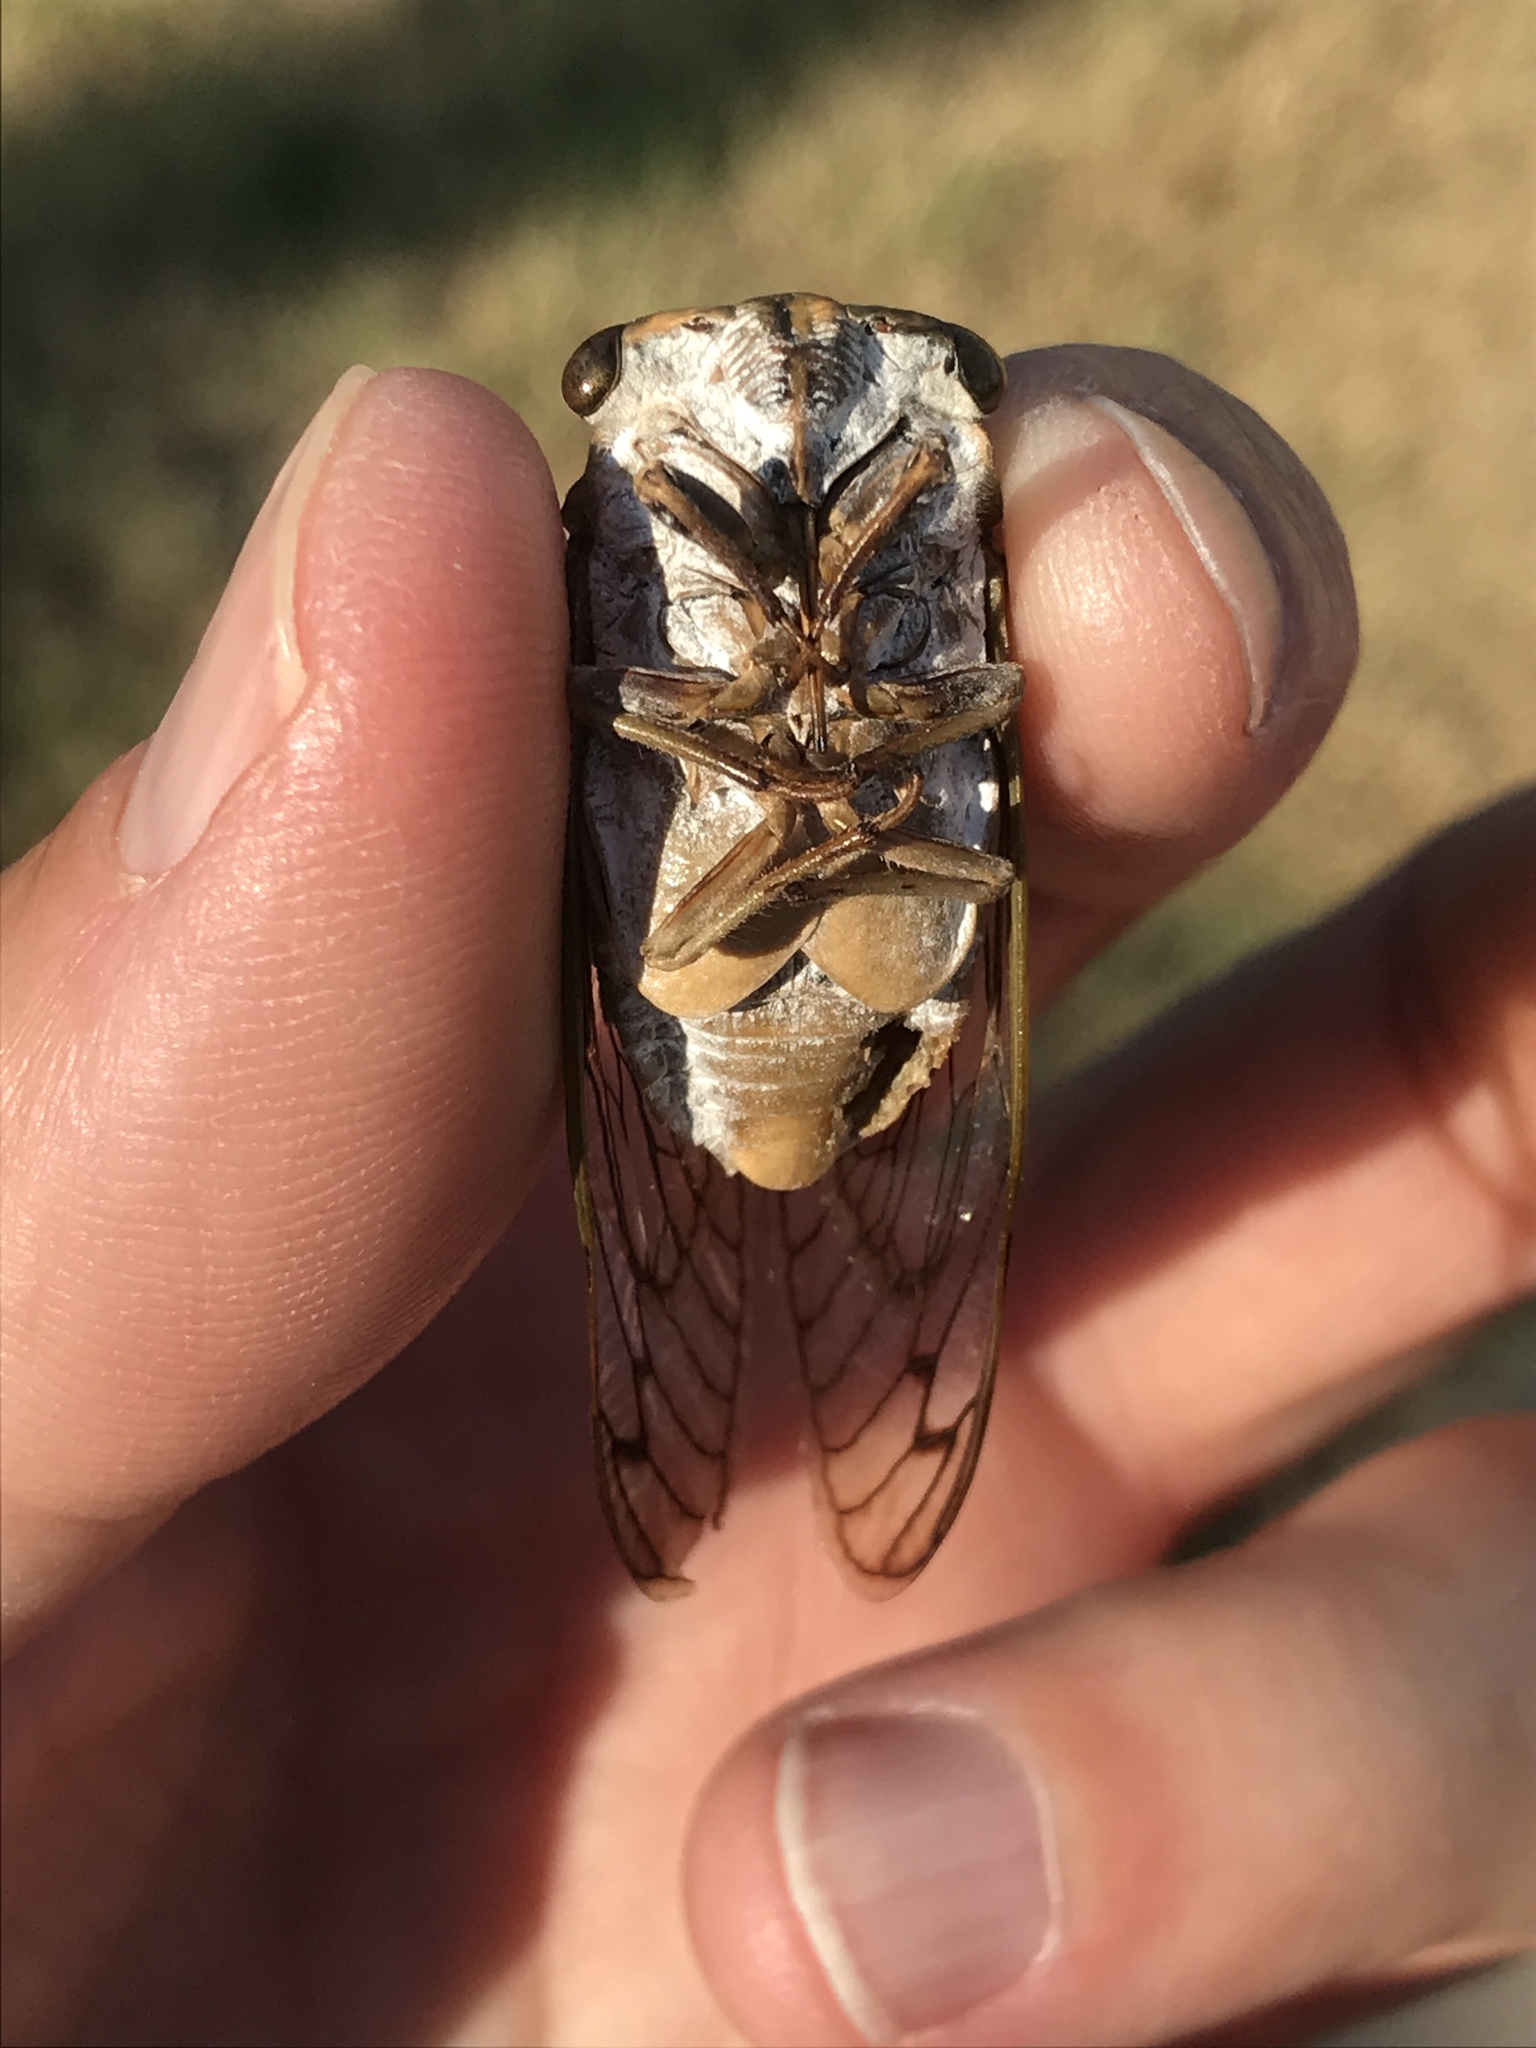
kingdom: Animalia
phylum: Arthropoda
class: Insecta
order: Hemiptera
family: Cicadidae
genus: Neotibicen
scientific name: Neotibicen superbus
